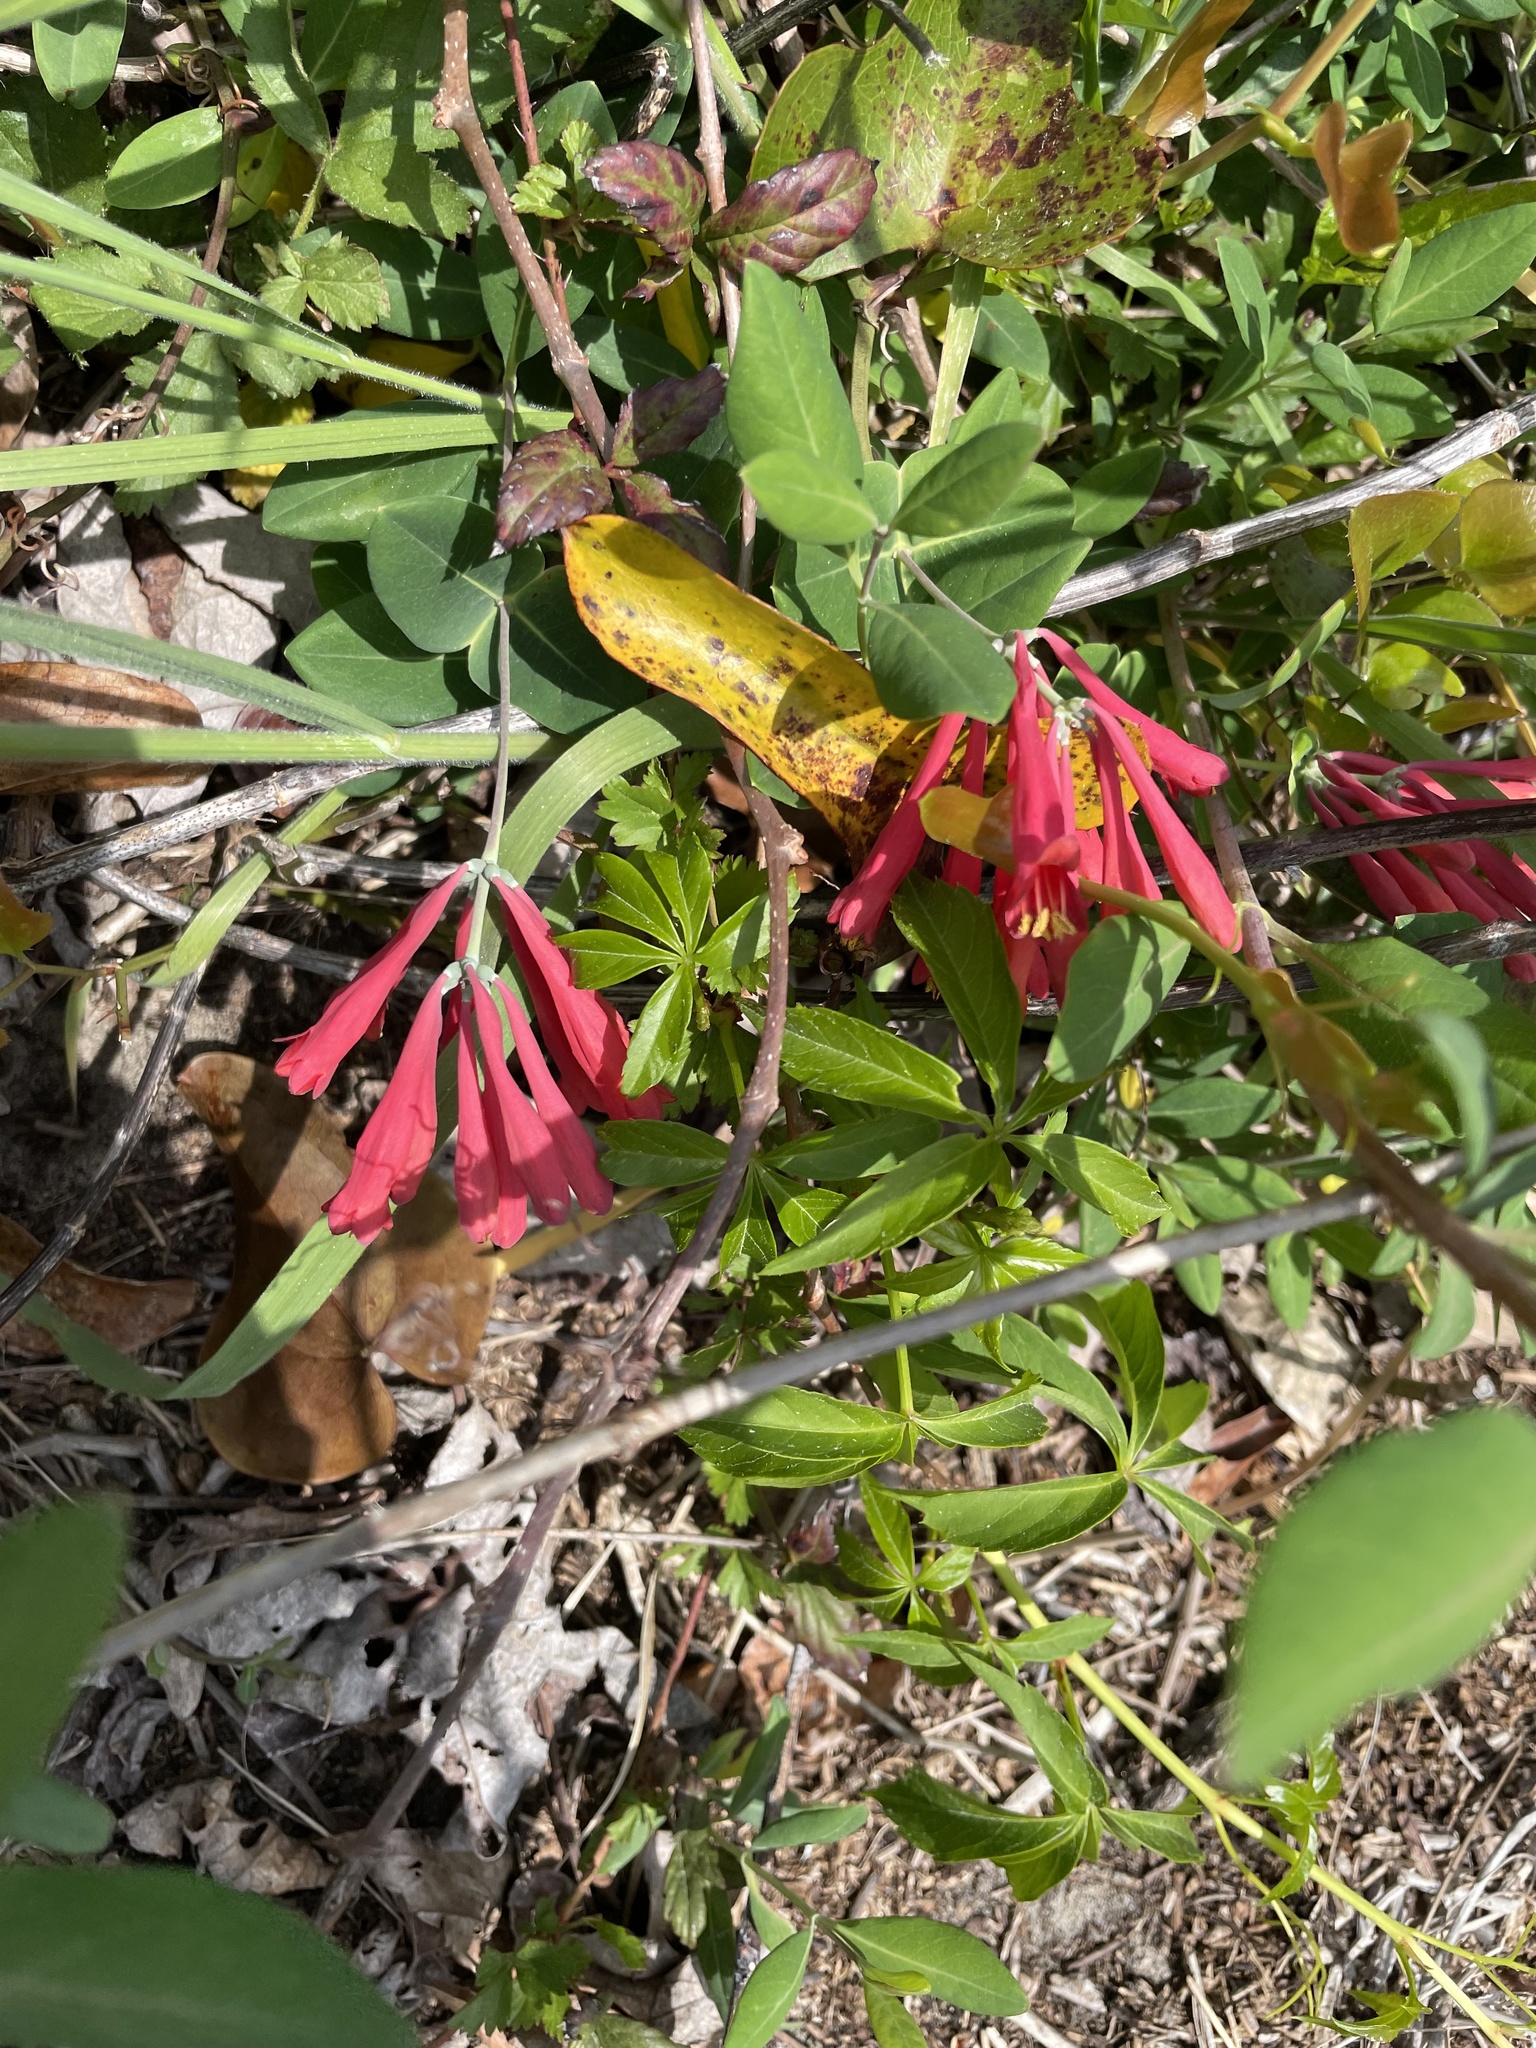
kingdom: Plantae
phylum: Tracheophyta
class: Magnoliopsida
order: Dipsacales
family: Caprifoliaceae
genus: Lonicera
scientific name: Lonicera sempervirens
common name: Coral honeysuckle
